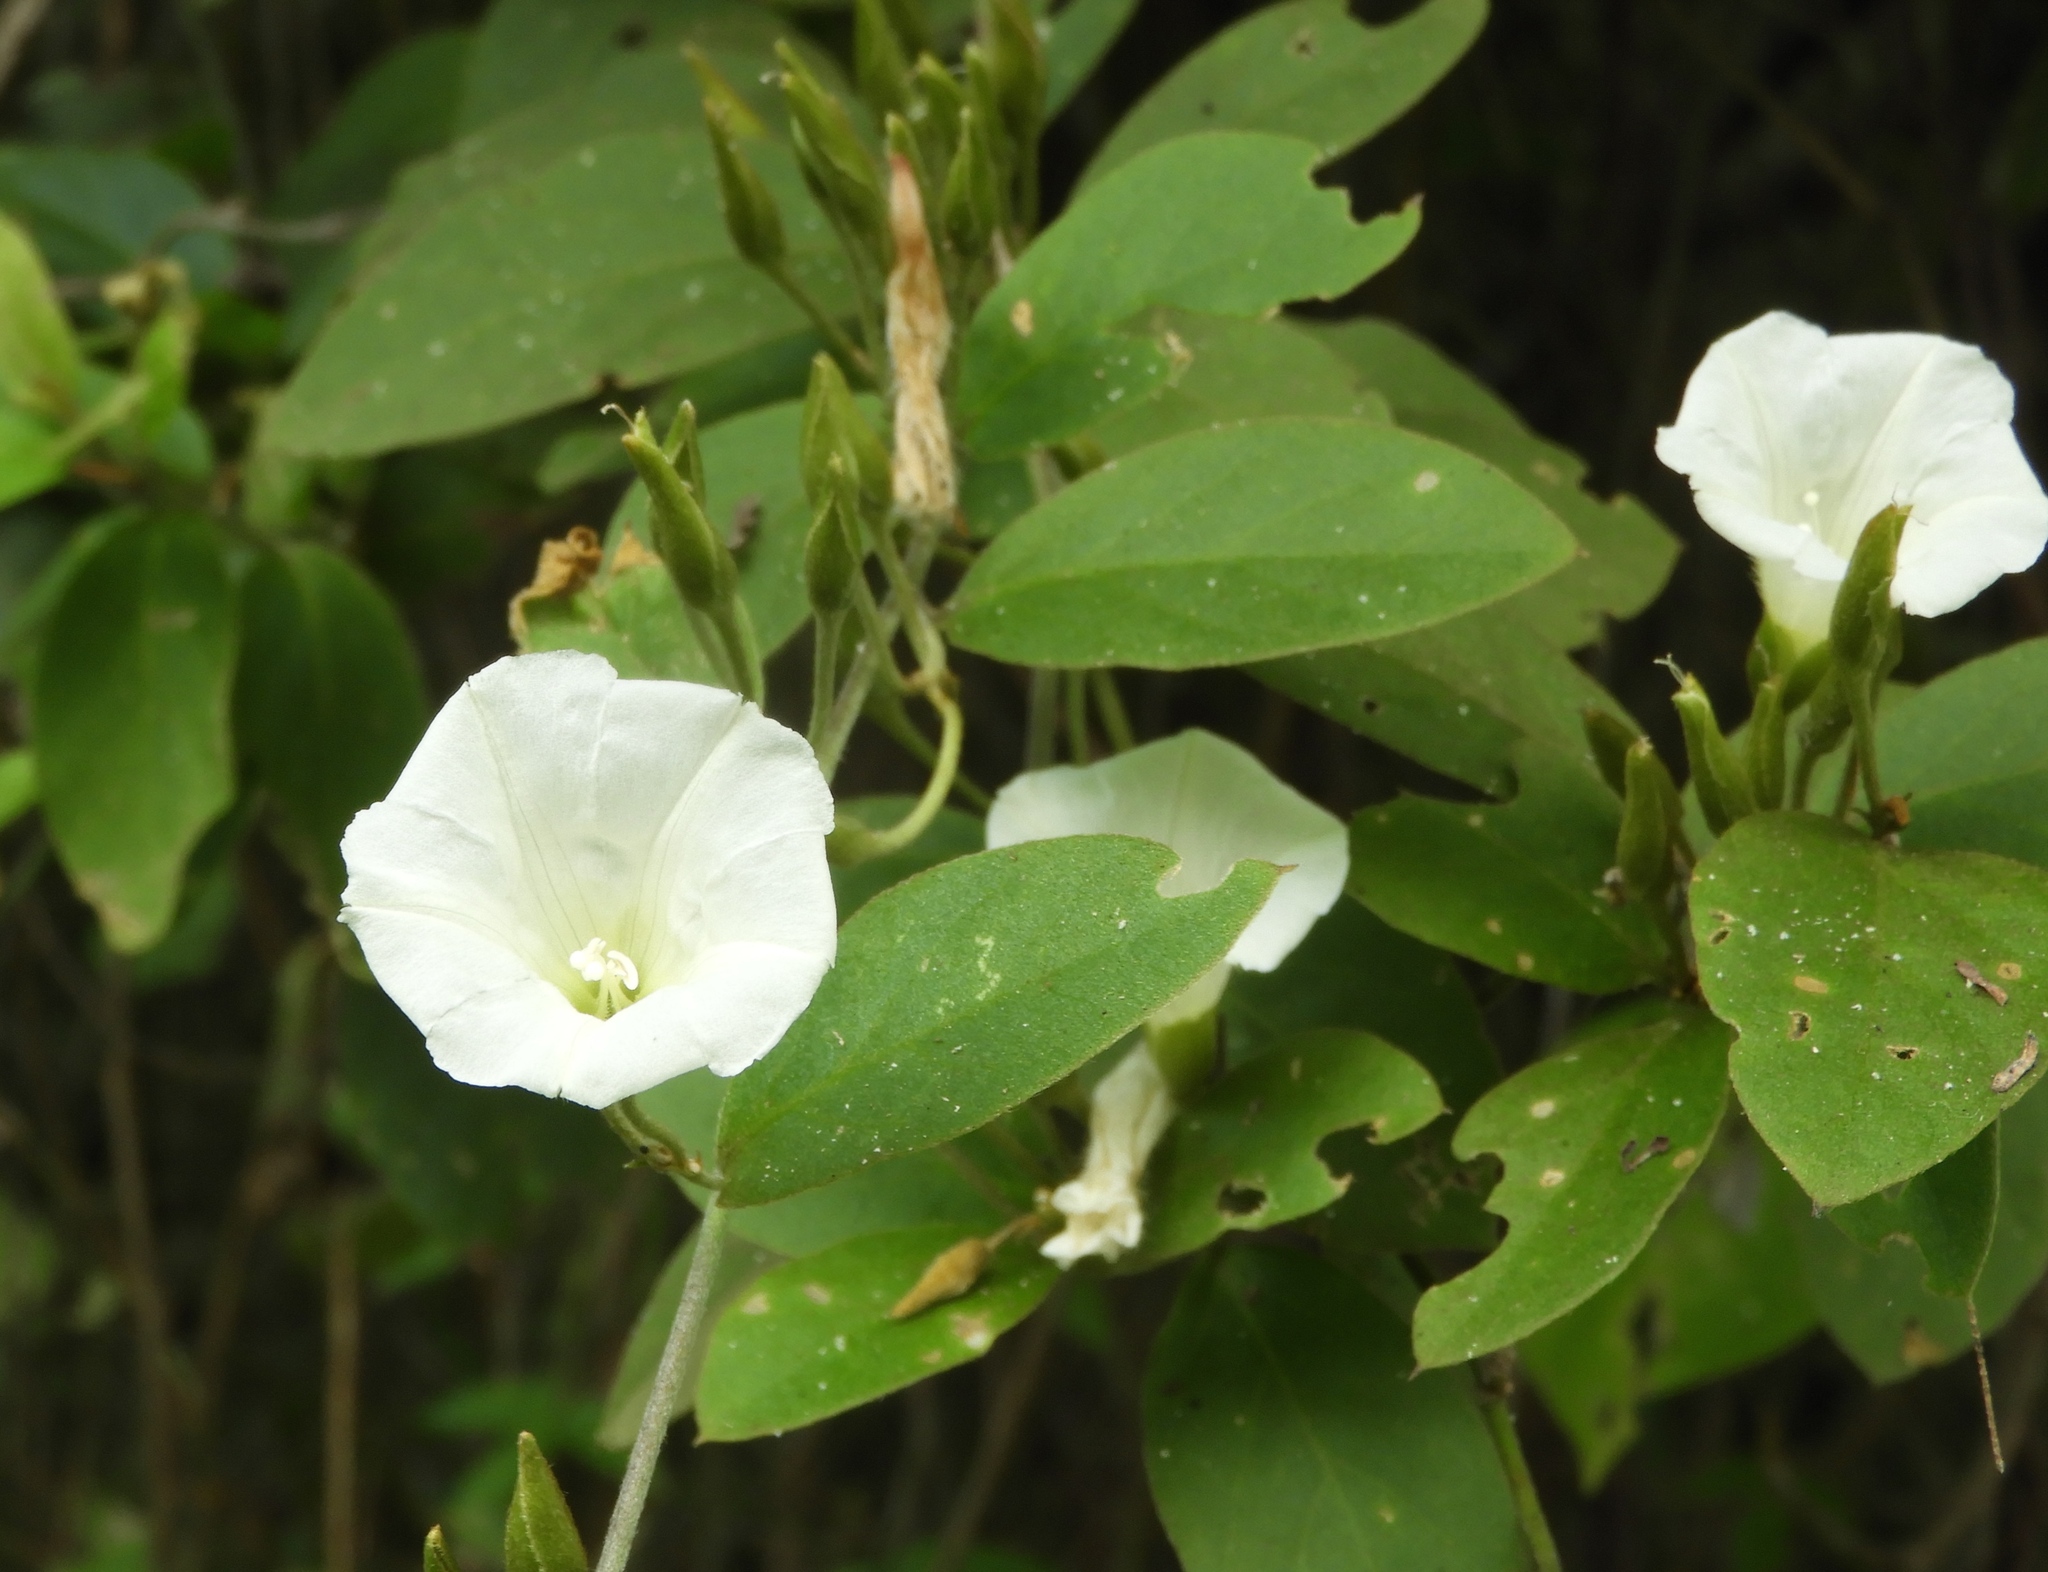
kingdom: Plantae
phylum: Tracheophyta
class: Magnoliopsida
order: Solanales
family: Convolvulaceae
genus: Bonamia
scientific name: Bonamia sulphurea
